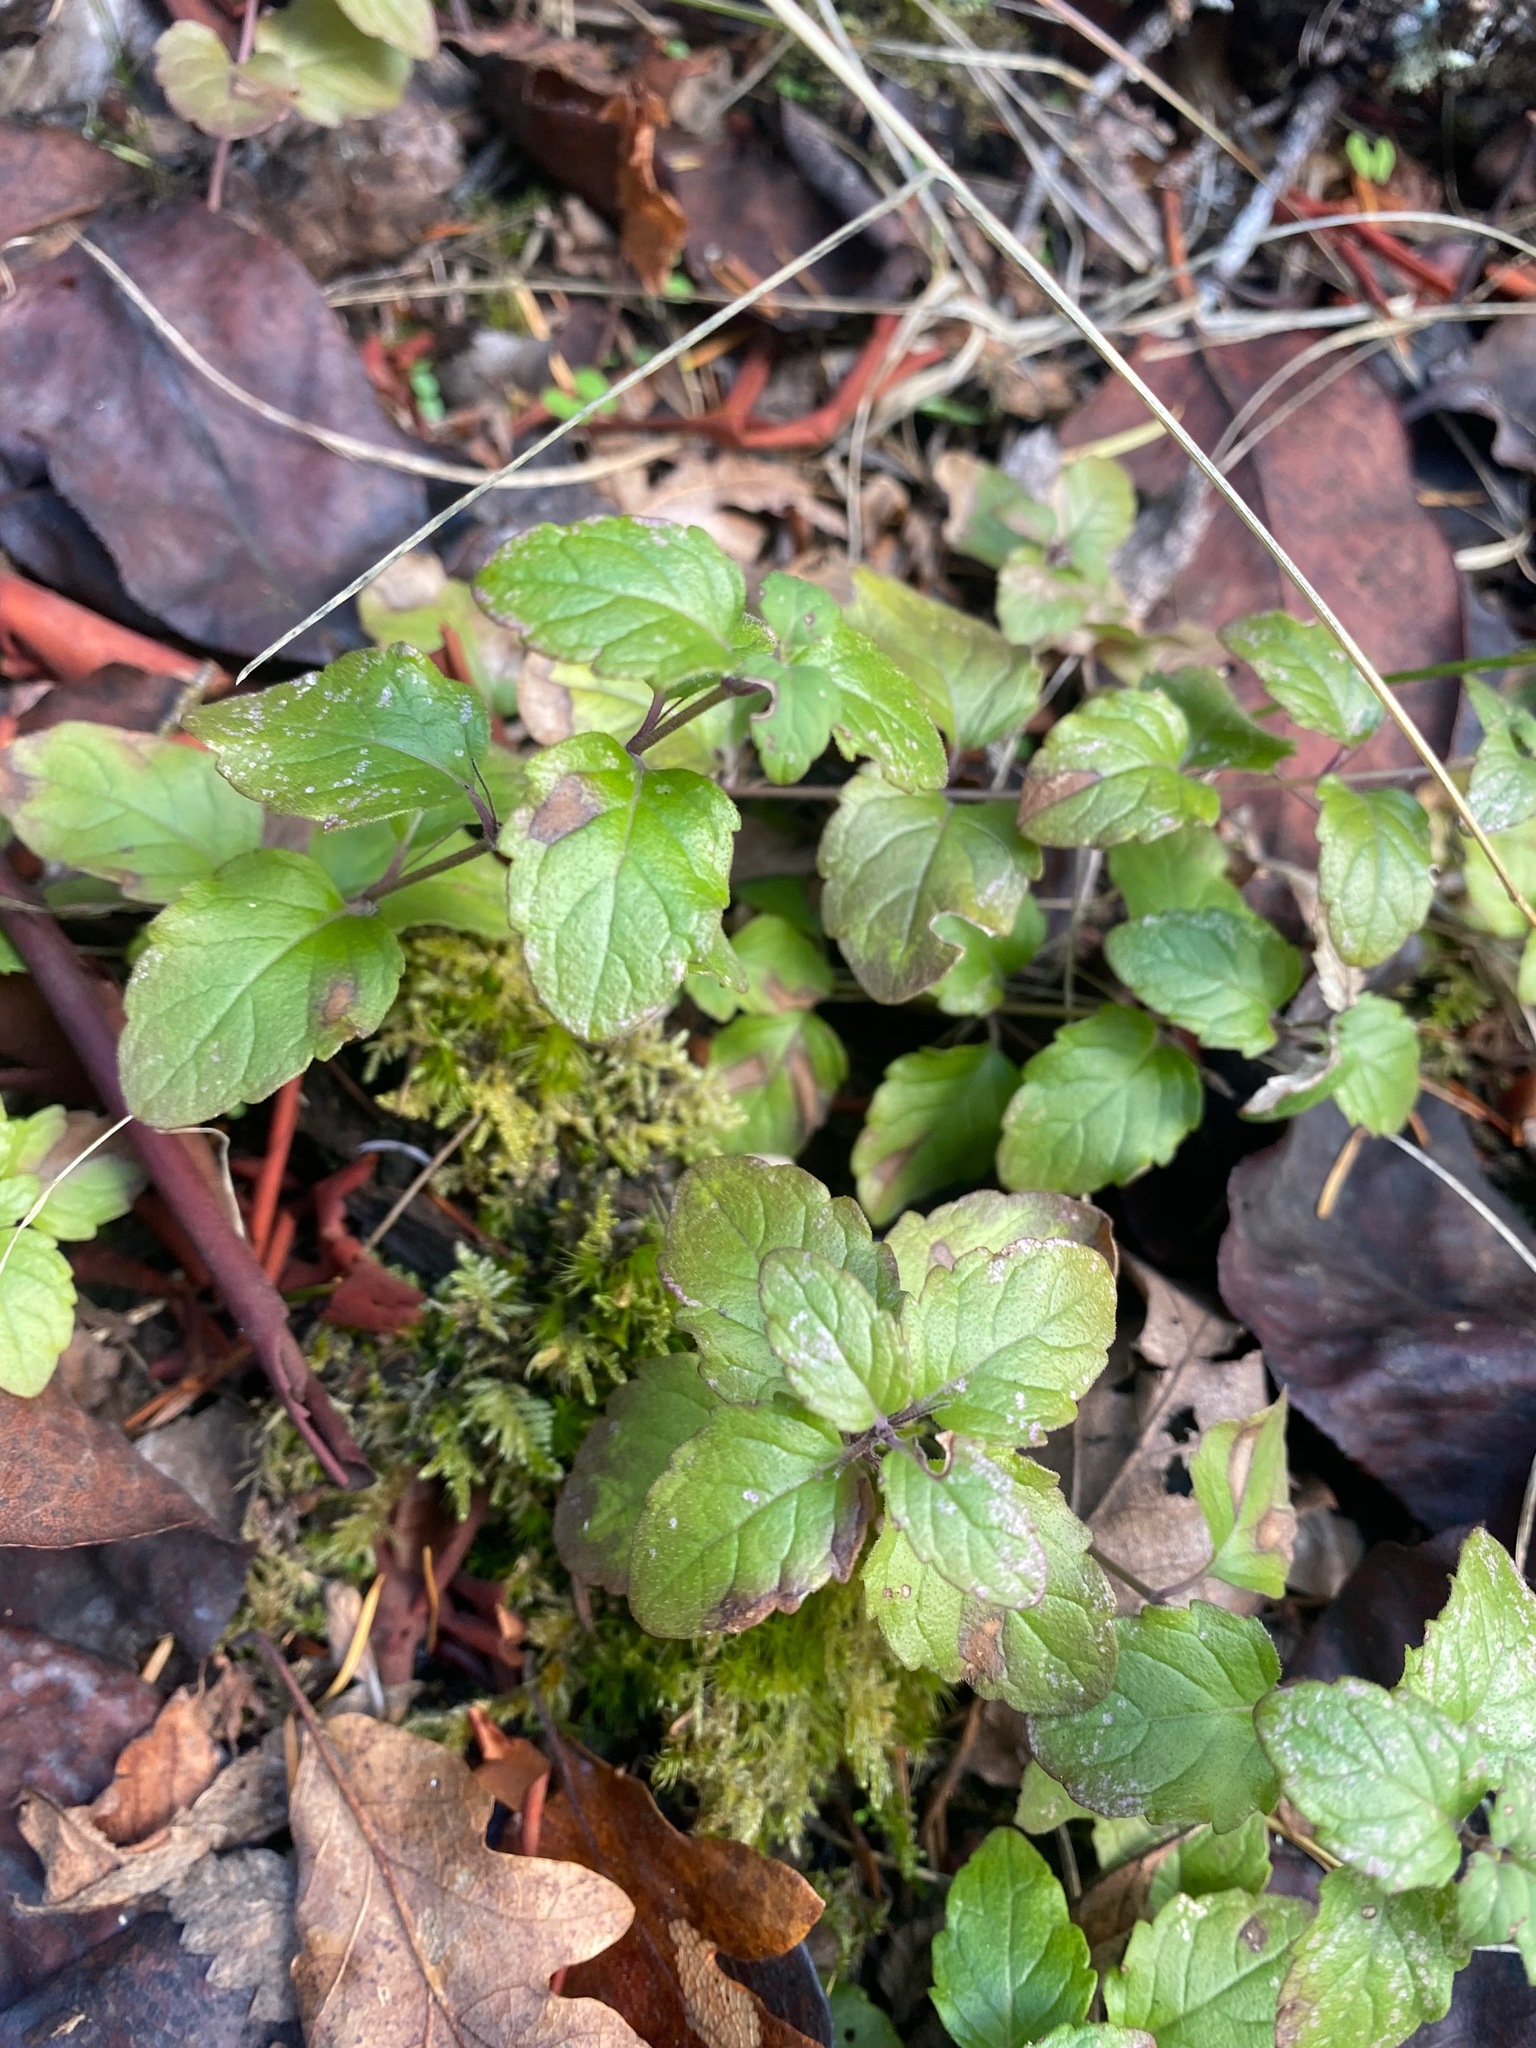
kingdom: Plantae
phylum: Tracheophyta
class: Magnoliopsida
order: Lamiales
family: Lamiaceae
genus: Micromeria
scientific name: Micromeria douglasii
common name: Yerba buena
